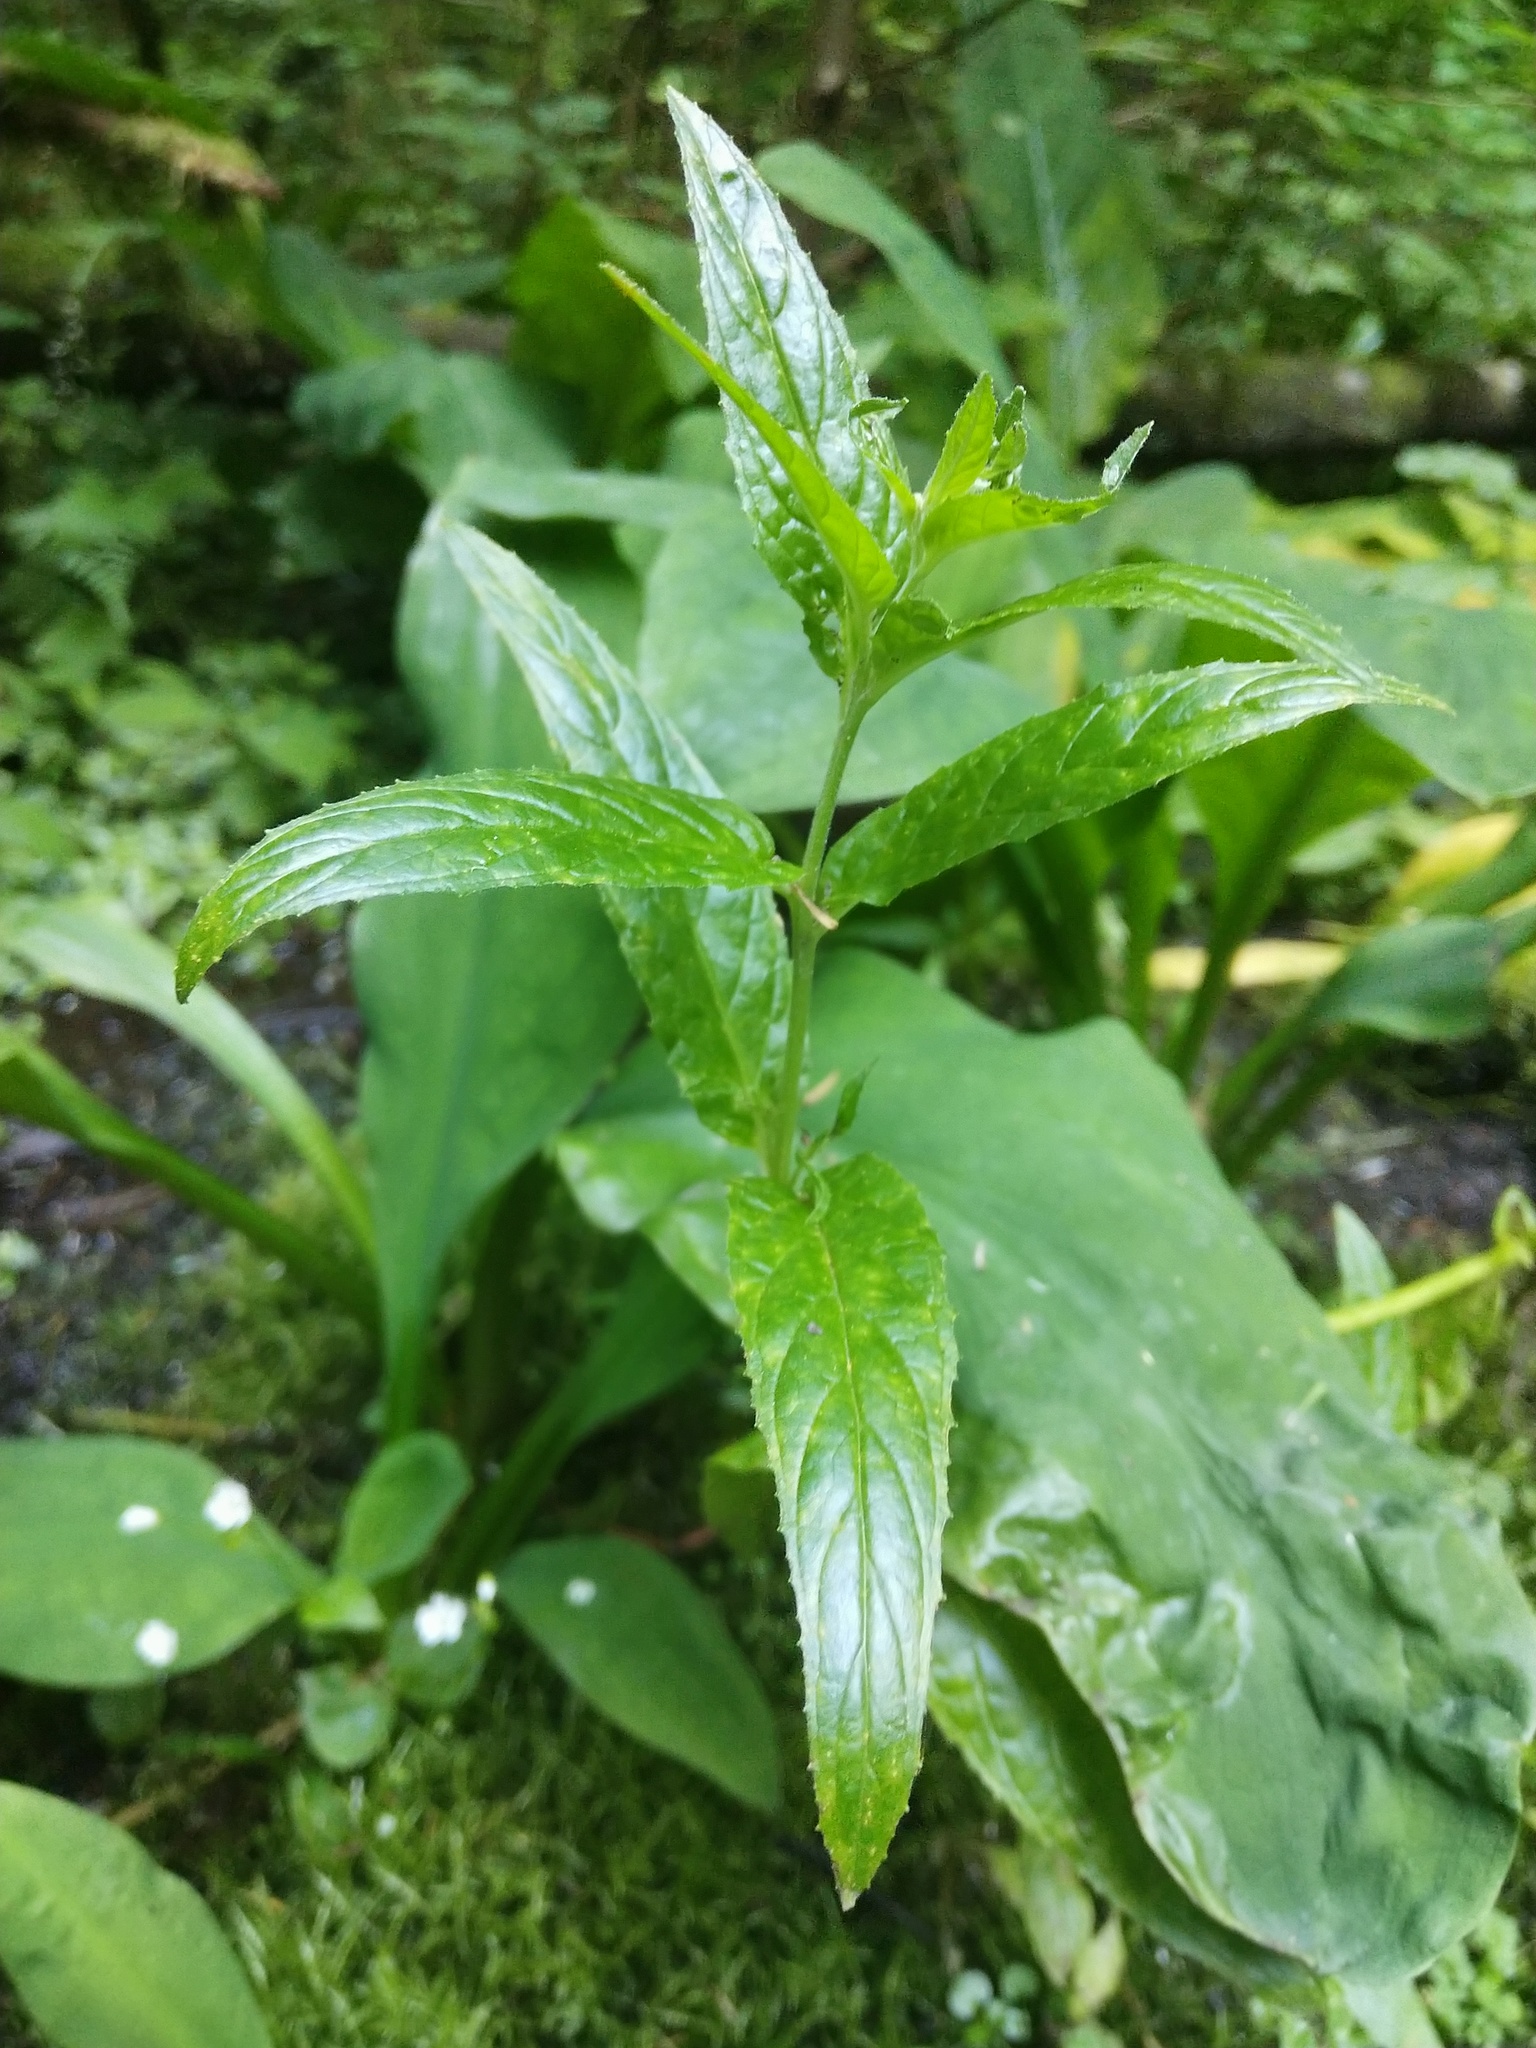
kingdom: Plantae
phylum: Tracheophyta
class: Magnoliopsida
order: Myrtales
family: Onagraceae
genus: Epilobium
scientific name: Epilobium ciliatum
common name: American willowherb
